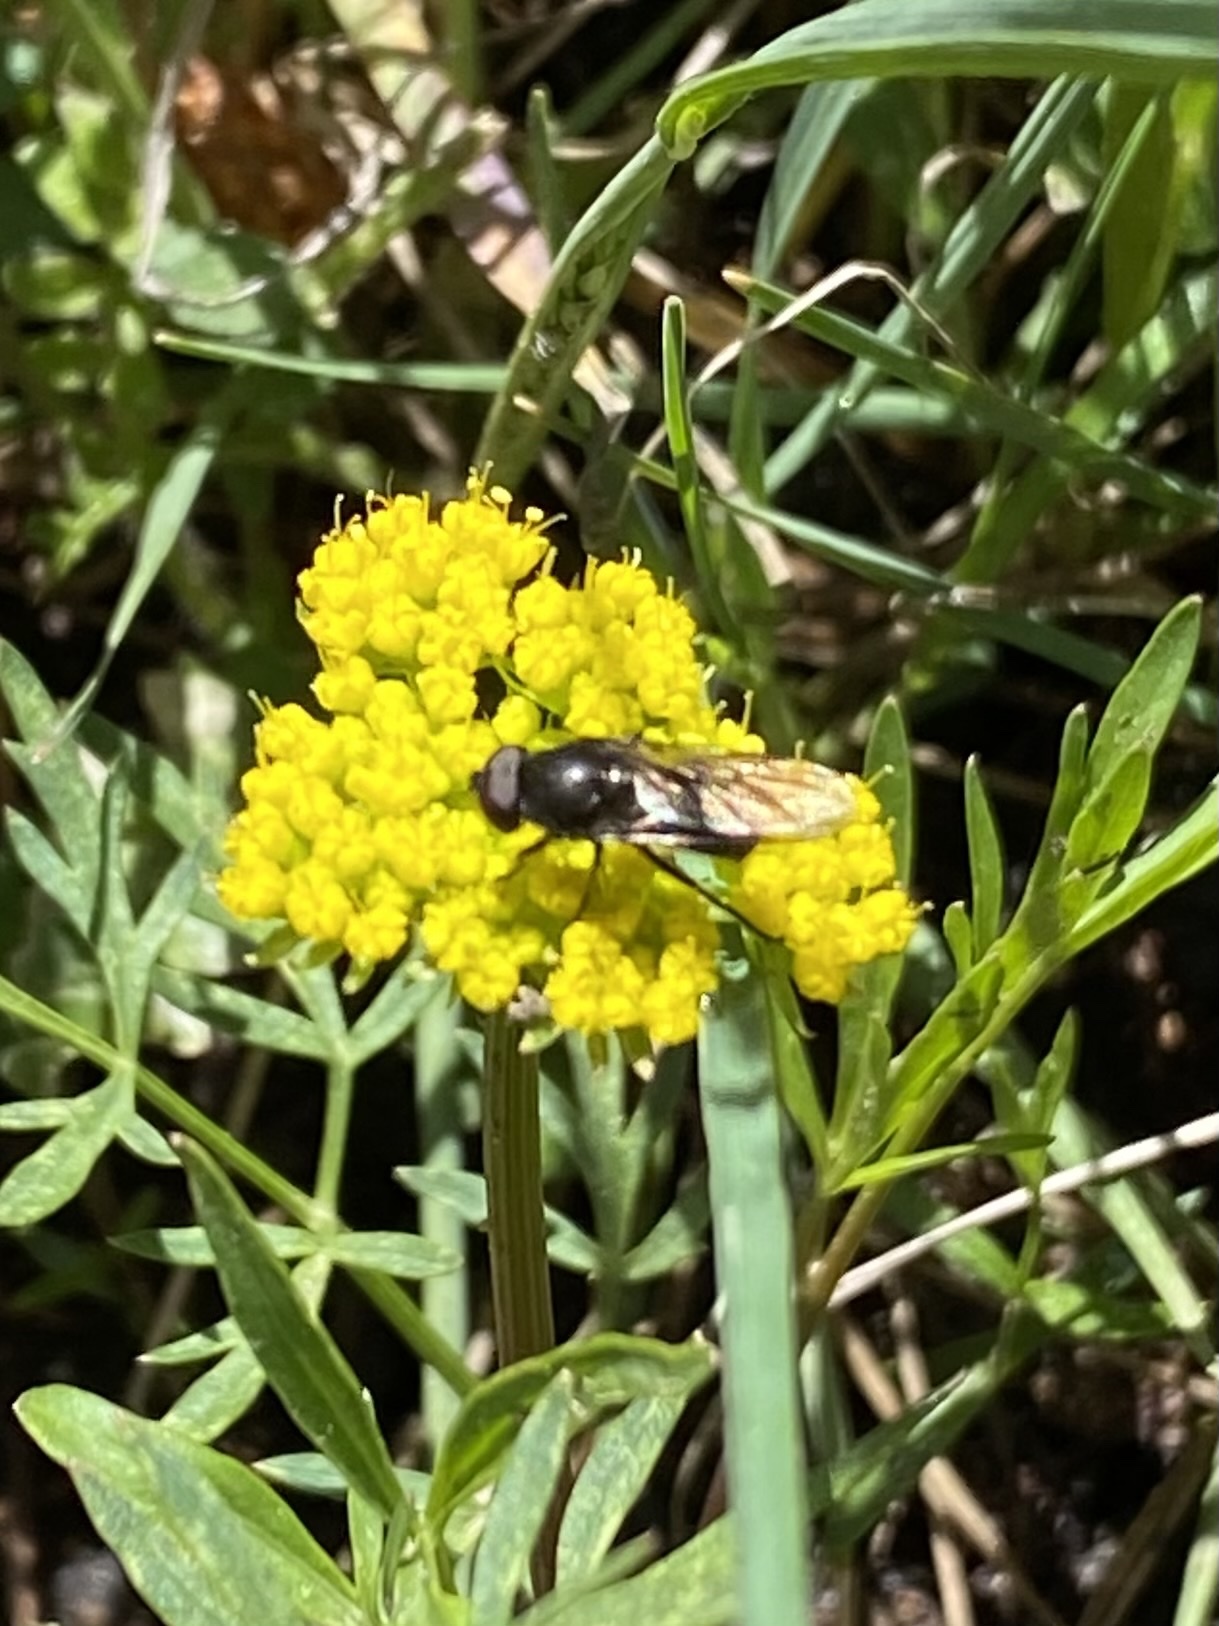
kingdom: Animalia
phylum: Arthropoda
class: Insecta
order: Diptera
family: Syrphidae
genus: Cheilosia
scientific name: Cheilosia
